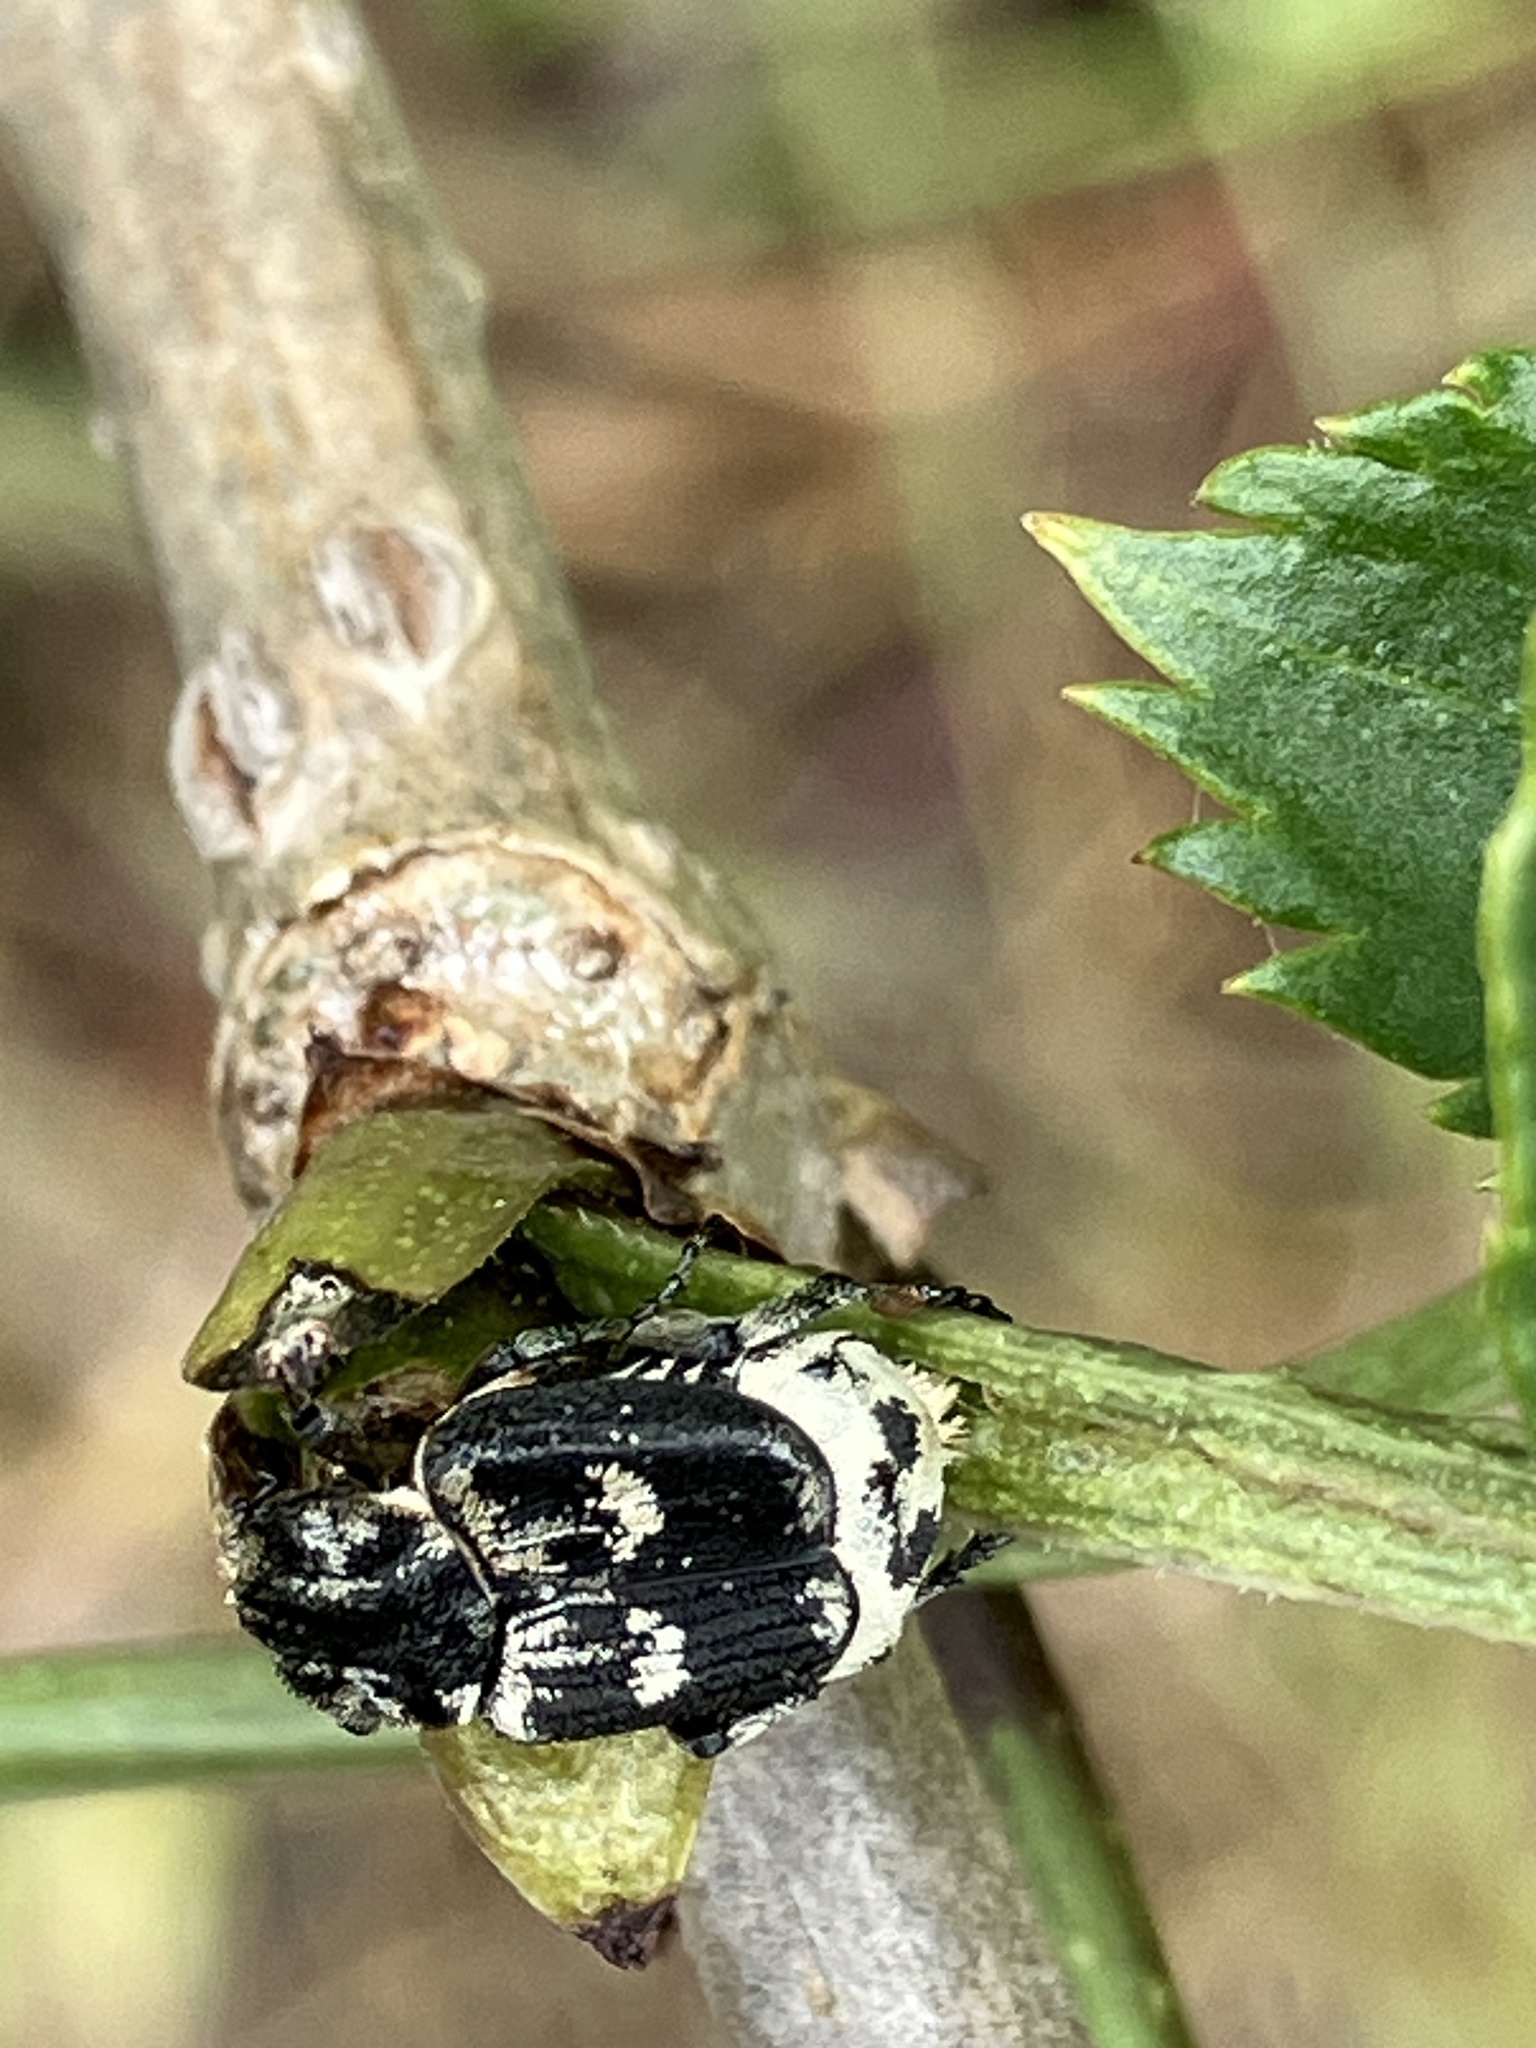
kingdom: Animalia
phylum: Arthropoda
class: Insecta
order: Coleoptera
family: Scarabaeidae
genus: Valgus
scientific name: Valgus hemipterus
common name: Bug flower chafer
